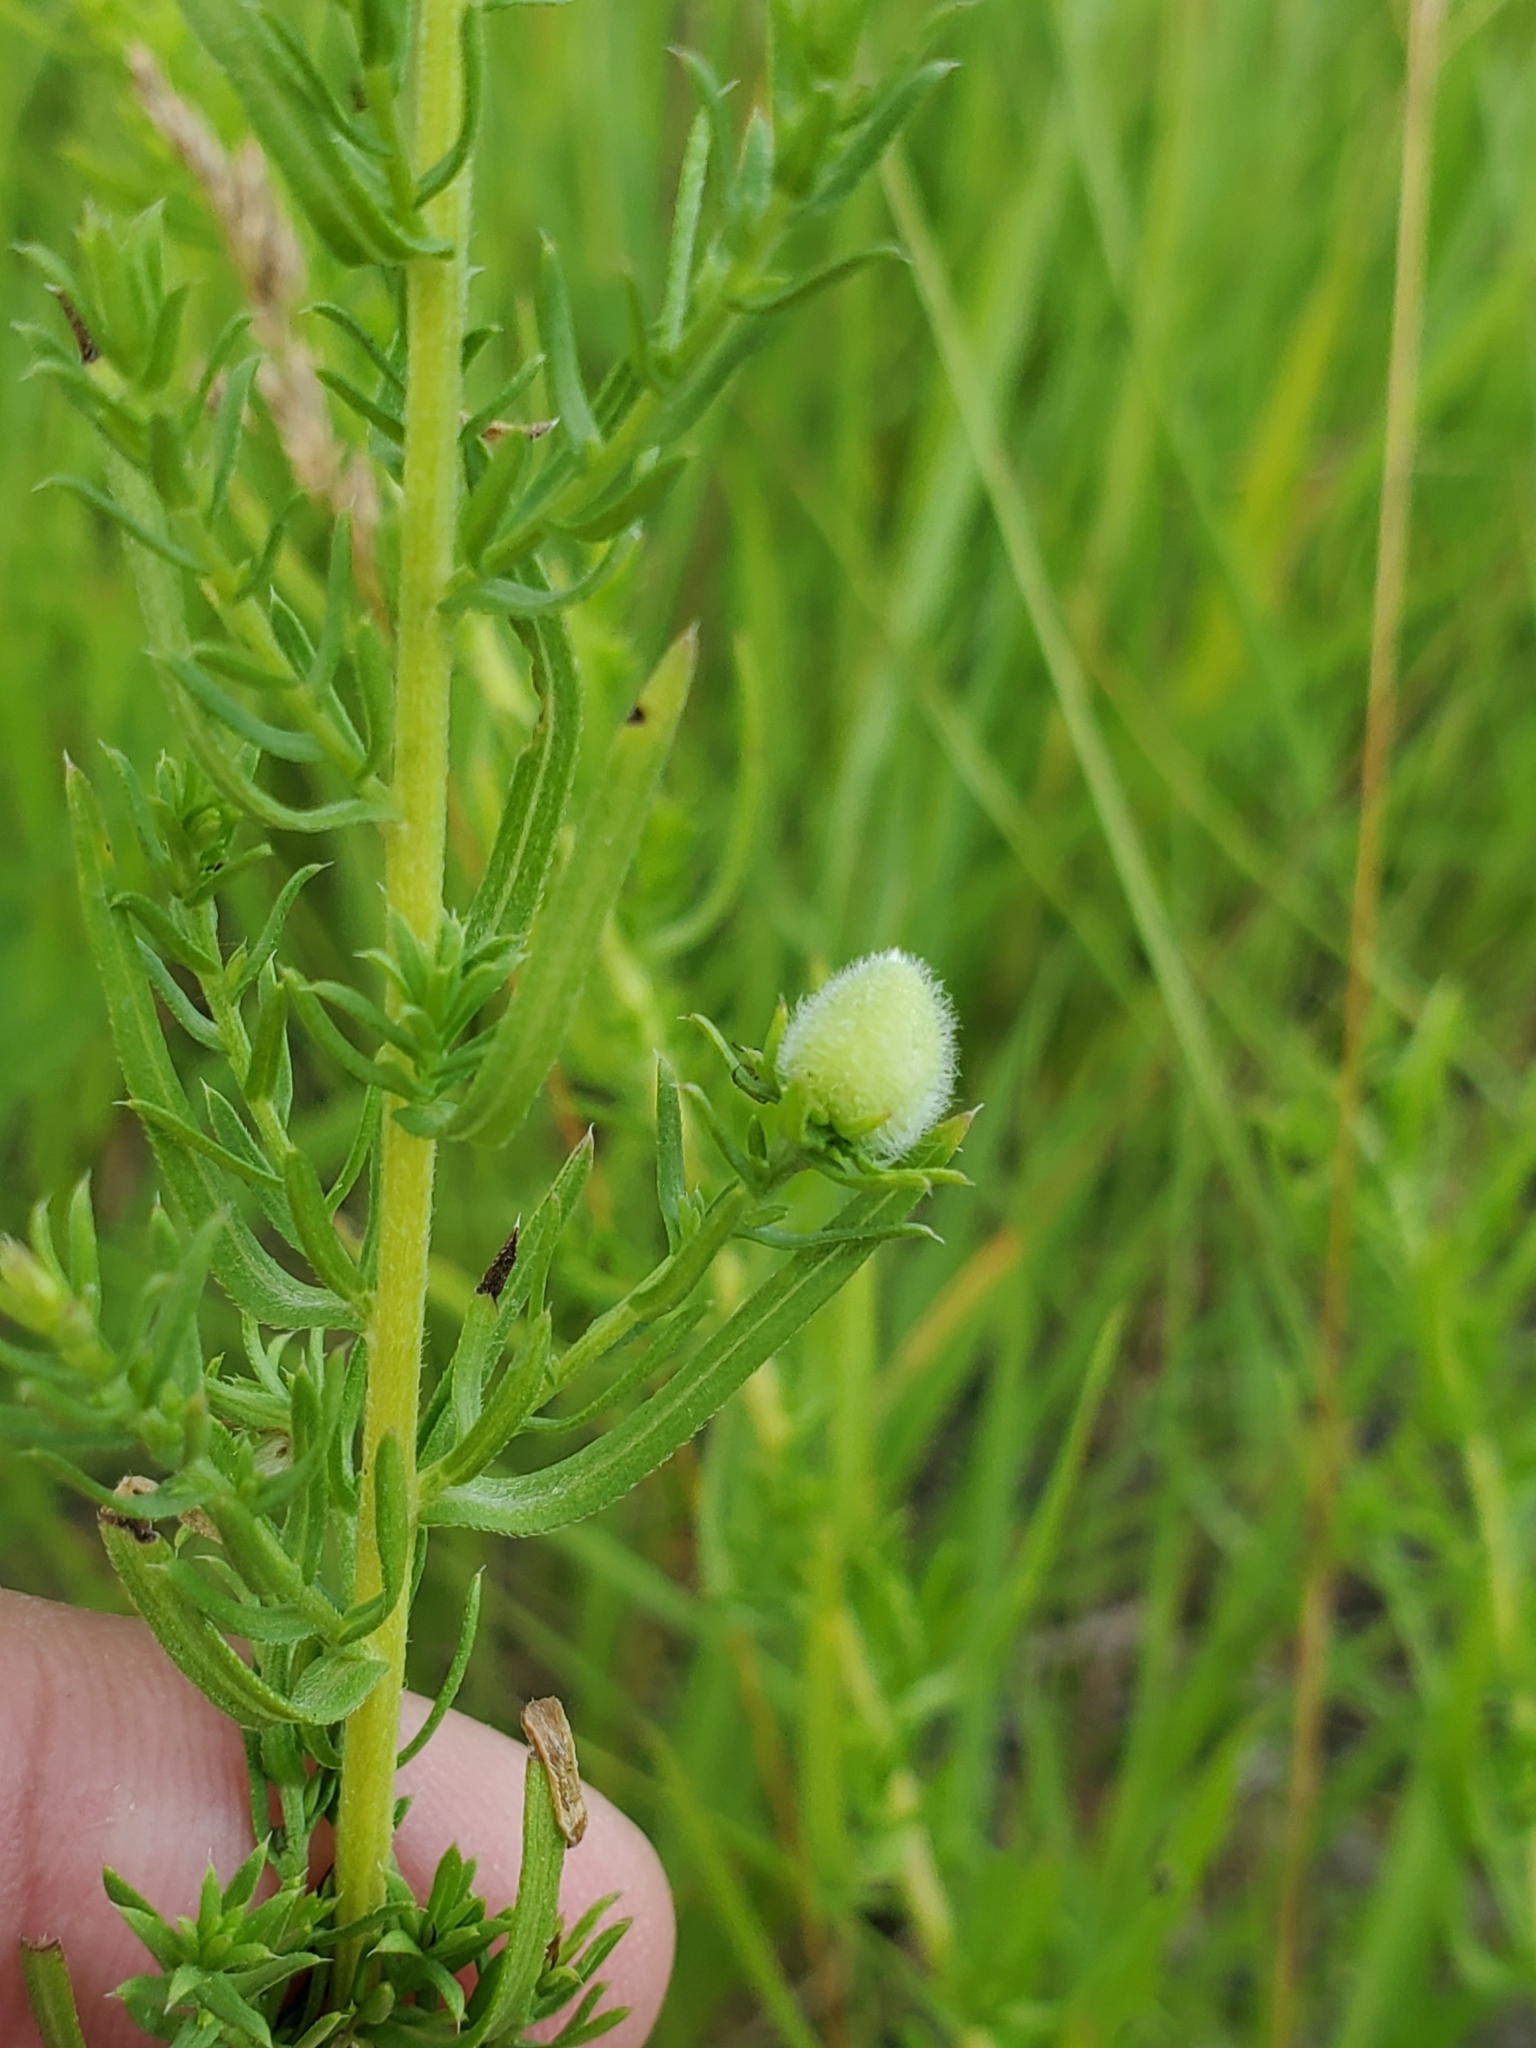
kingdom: Animalia
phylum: Arthropoda
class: Insecta
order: Diptera
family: Cecidomyiidae
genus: Rhopalomyia
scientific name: Rhopalomyia gemmaria
